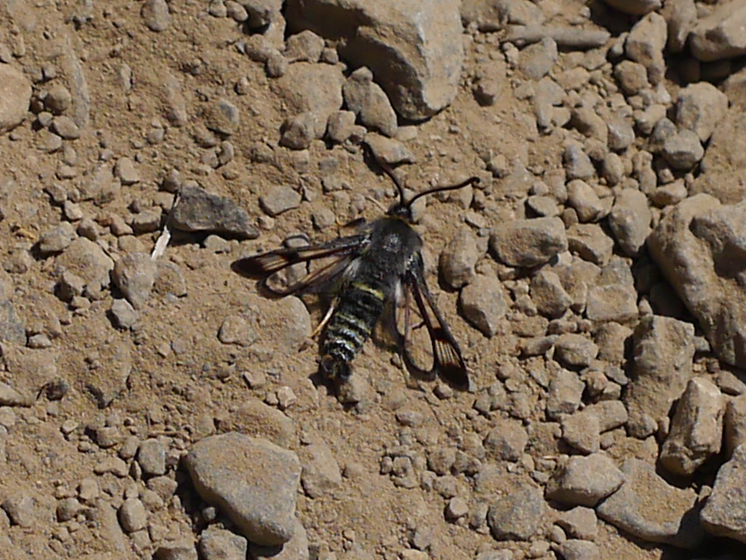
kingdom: Animalia
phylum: Arthropoda
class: Insecta
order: Lepidoptera
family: Sesiidae
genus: Albuna
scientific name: Albuna pyramidalis
